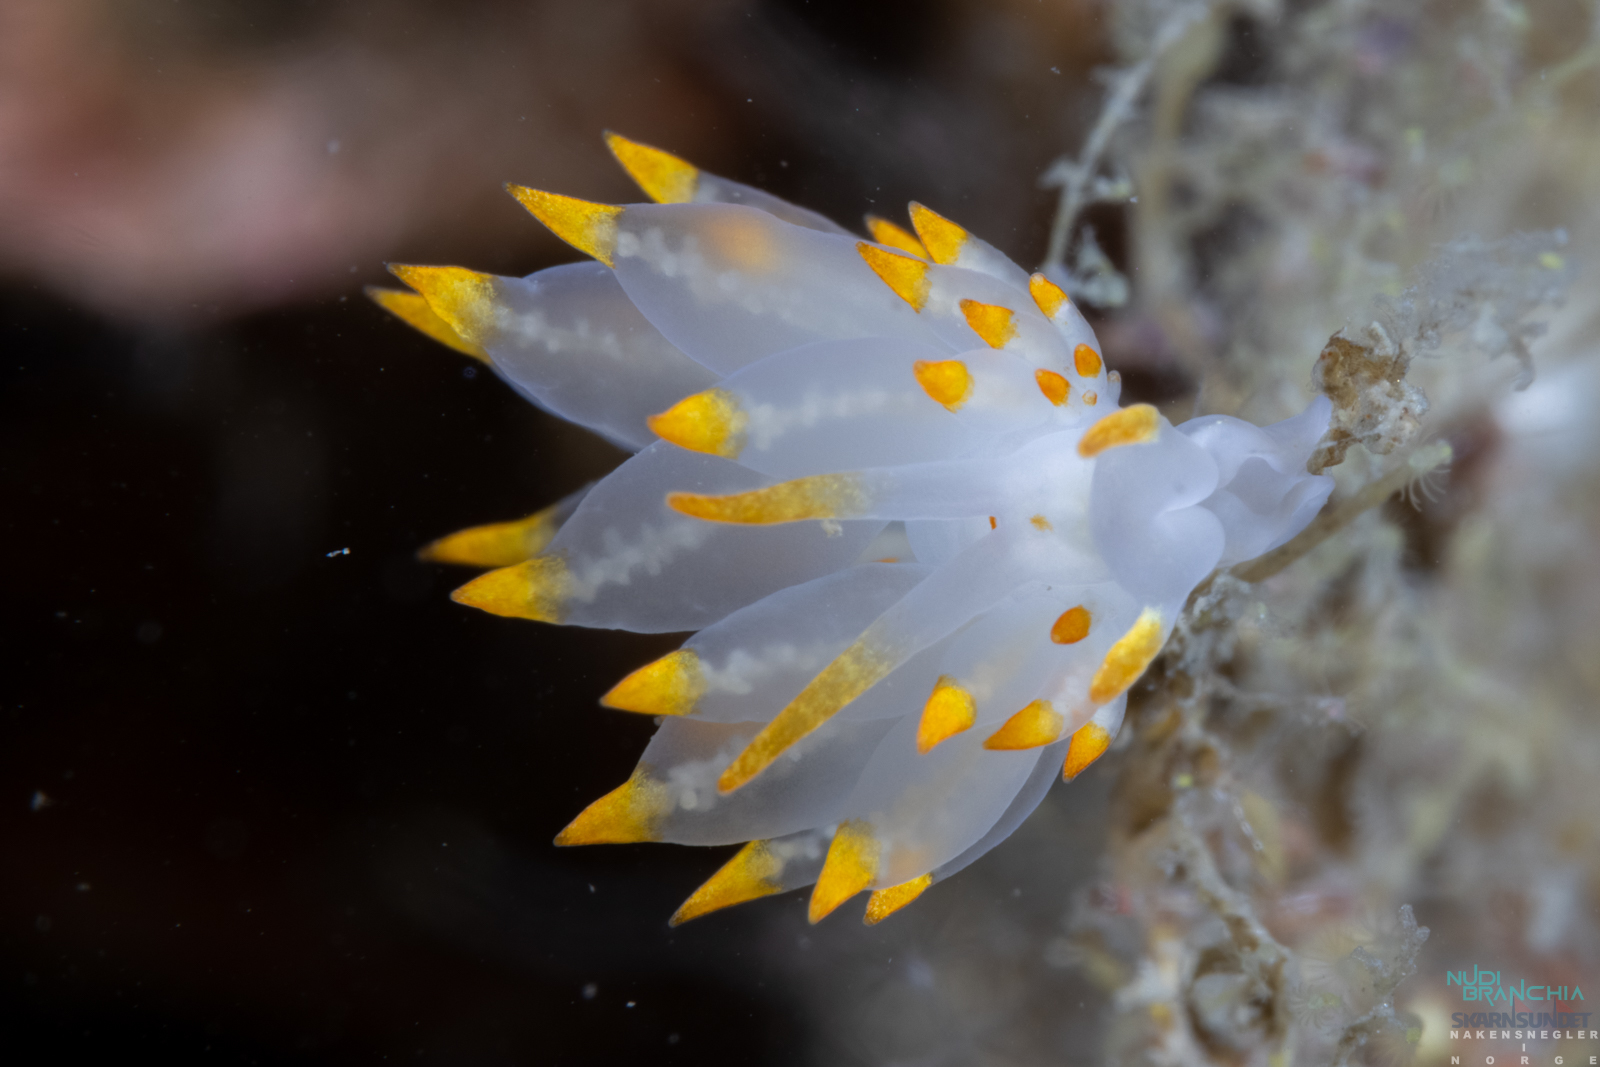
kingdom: Animalia
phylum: Mollusca
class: Gastropoda
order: Nudibranchia
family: Eubranchidae
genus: Amphorina
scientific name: Amphorina farrani
